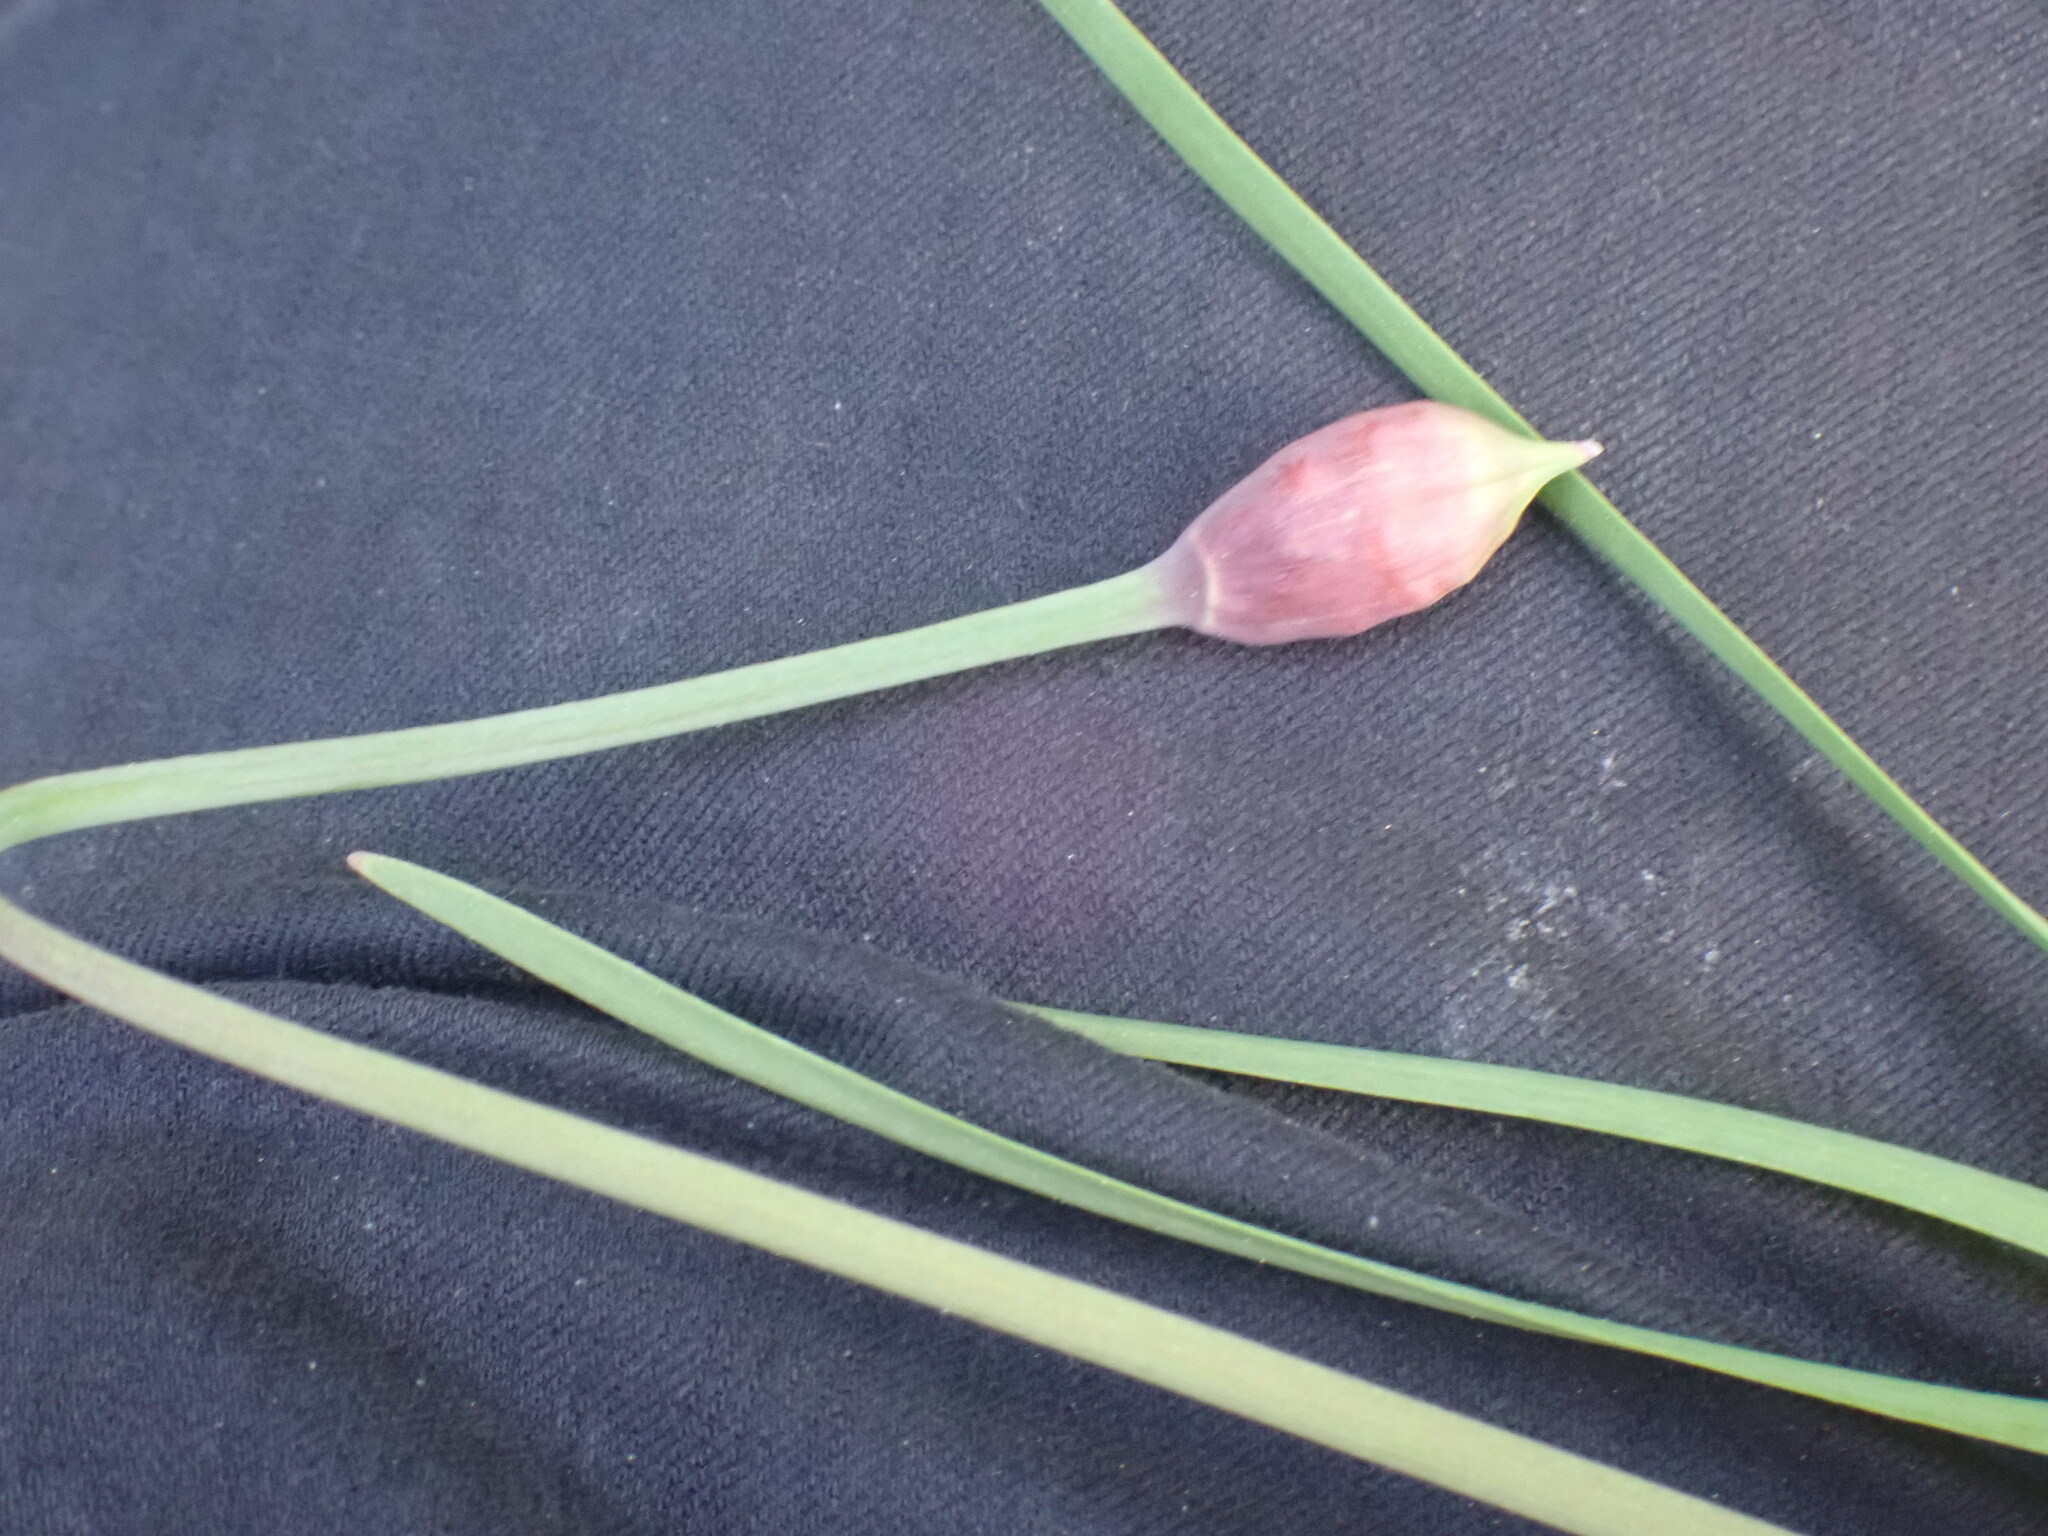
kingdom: Plantae
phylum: Tracheophyta
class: Liliopsida
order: Asparagales
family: Amaryllidaceae
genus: Allium
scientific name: Allium cernuum
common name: Nodding onion
